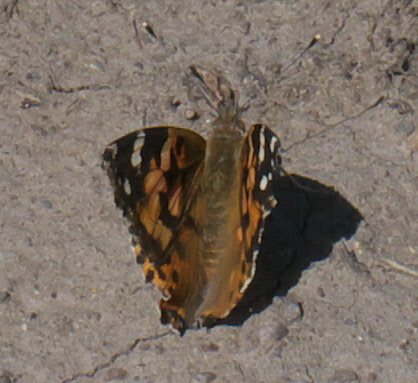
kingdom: Animalia
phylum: Arthropoda
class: Insecta
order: Lepidoptera
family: Nymphalidae
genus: Vanessa
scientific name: Vanessa cardui
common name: Painted lady
